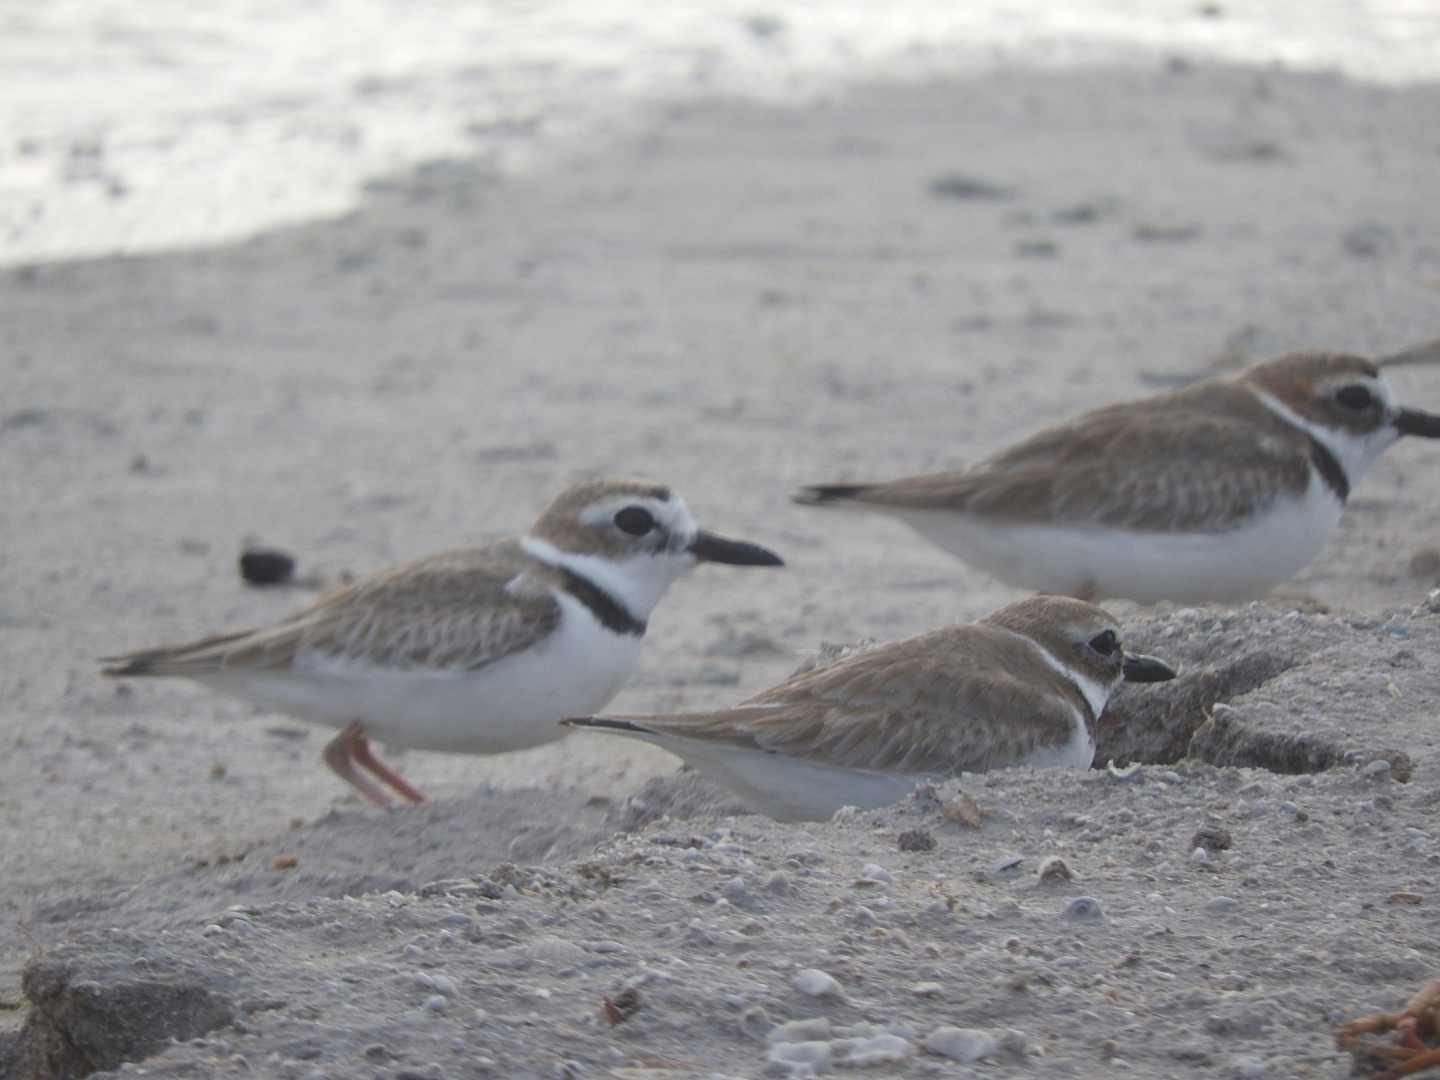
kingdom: Animalia
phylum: Chordata
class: Aves
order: Charadriiformes
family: Charadriidae
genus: Anarhynchus
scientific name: Anarhynchus
